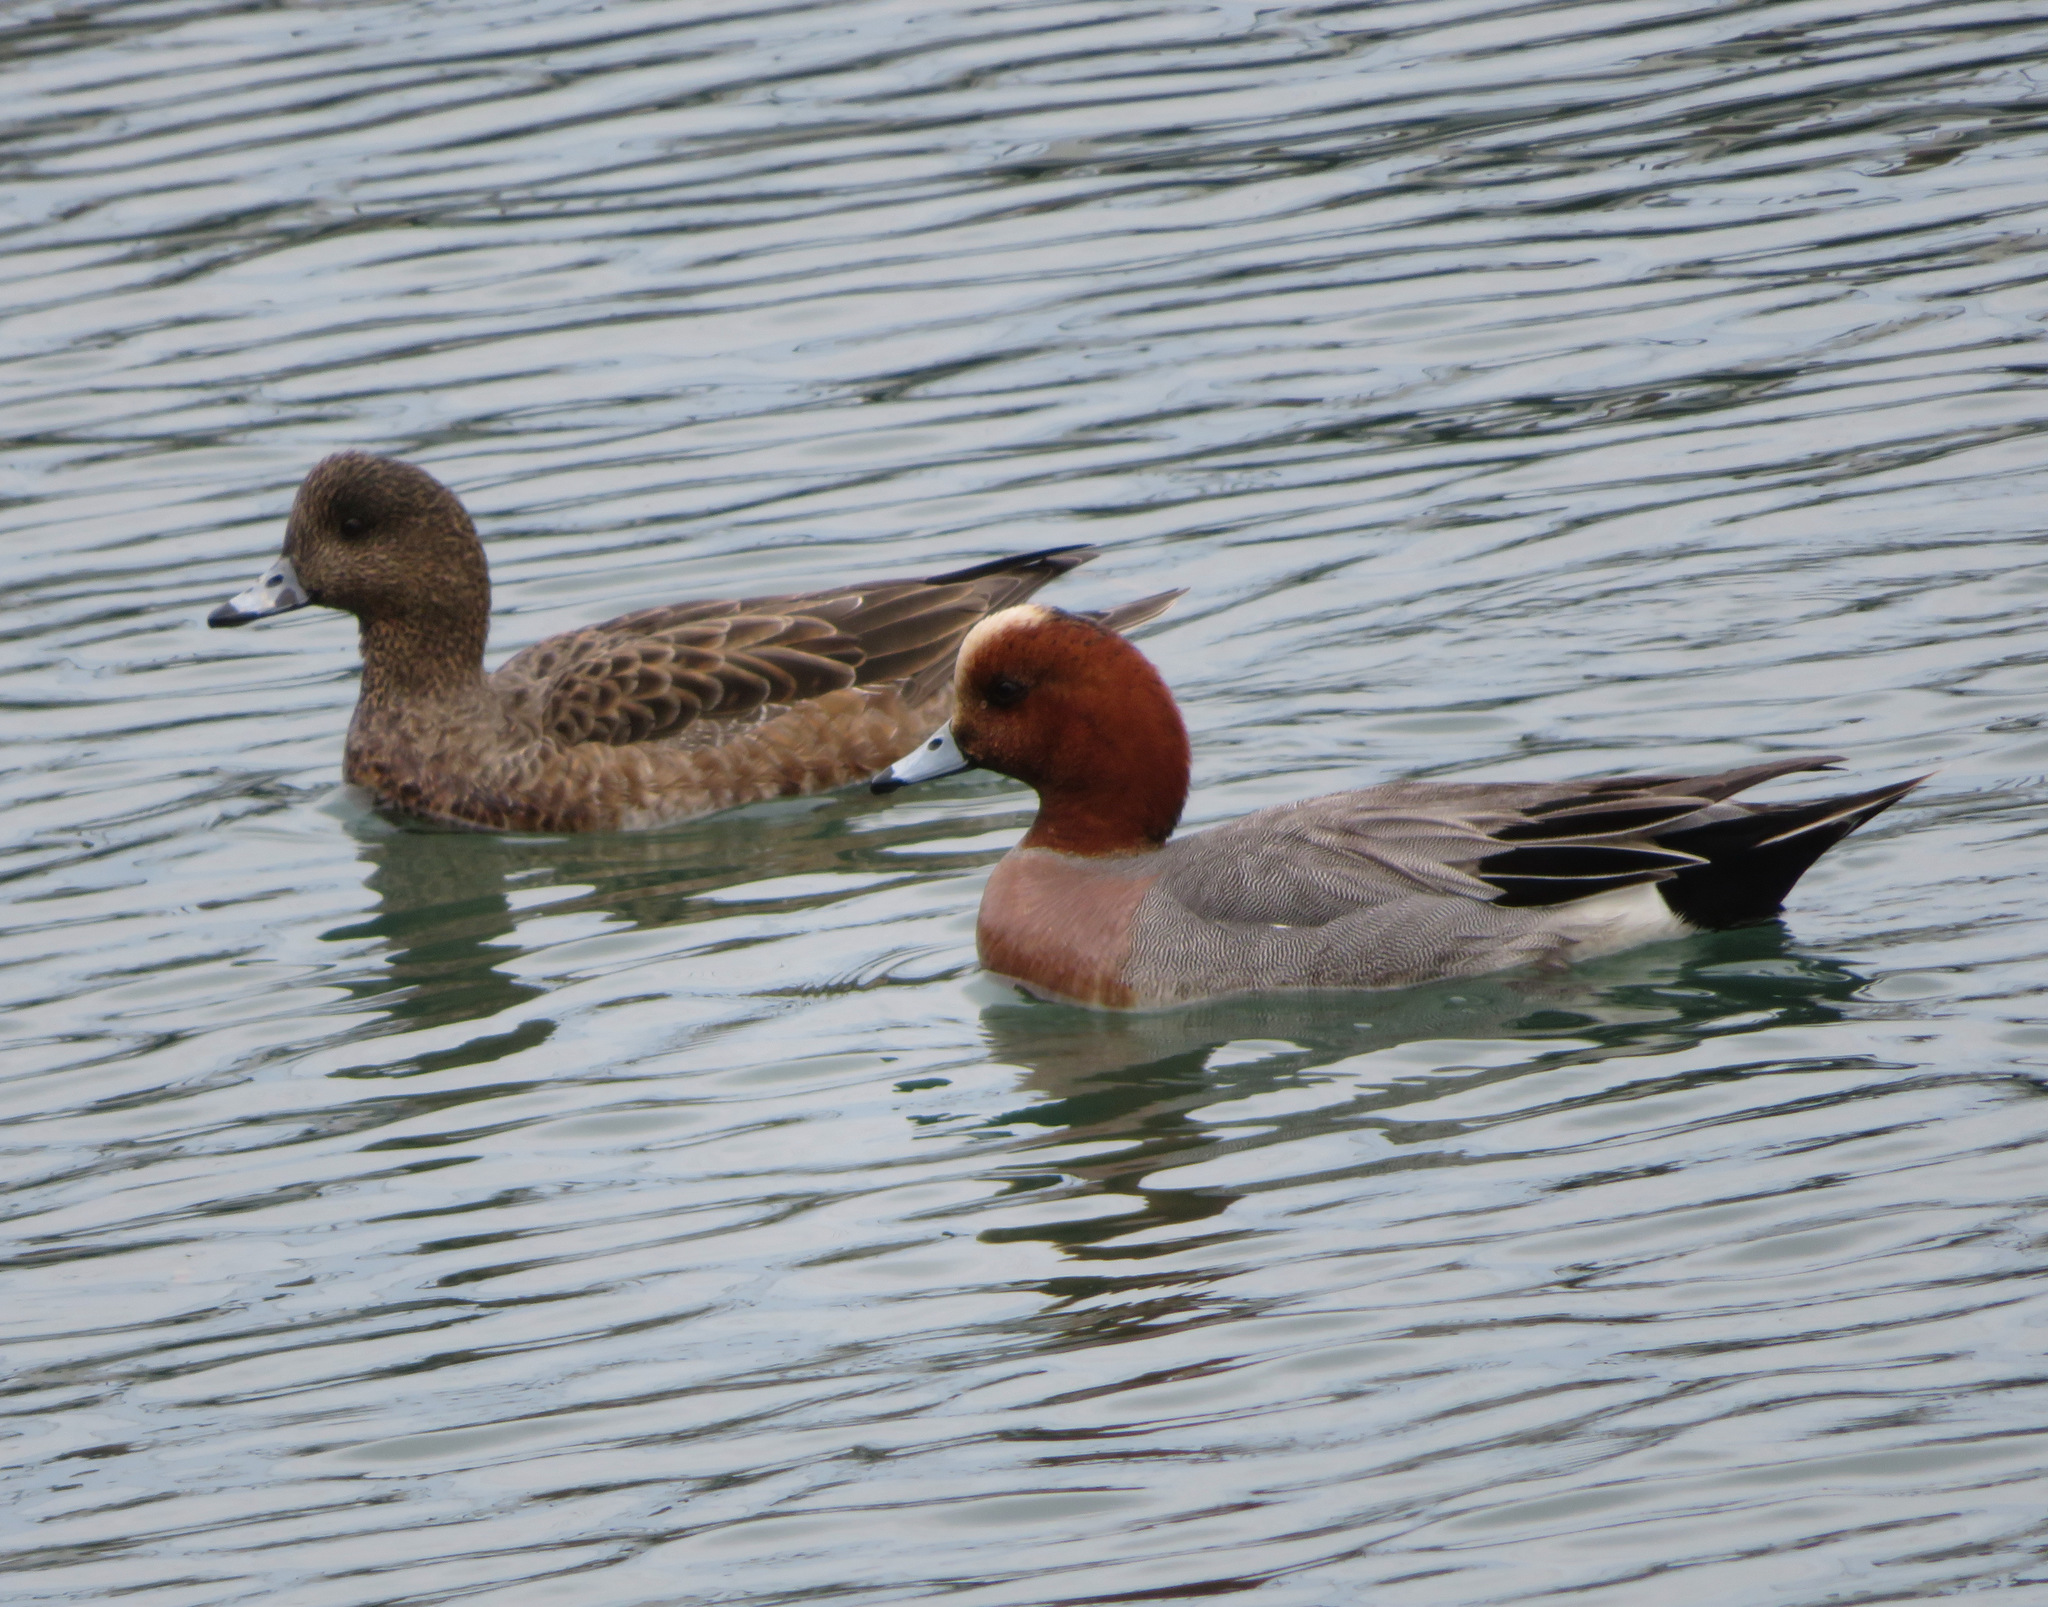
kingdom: Animalia
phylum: Chordata
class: Aves
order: Anseriformes
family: Anatidae
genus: Mareca
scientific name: Mareca penelope
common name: Eurasian wigeon
